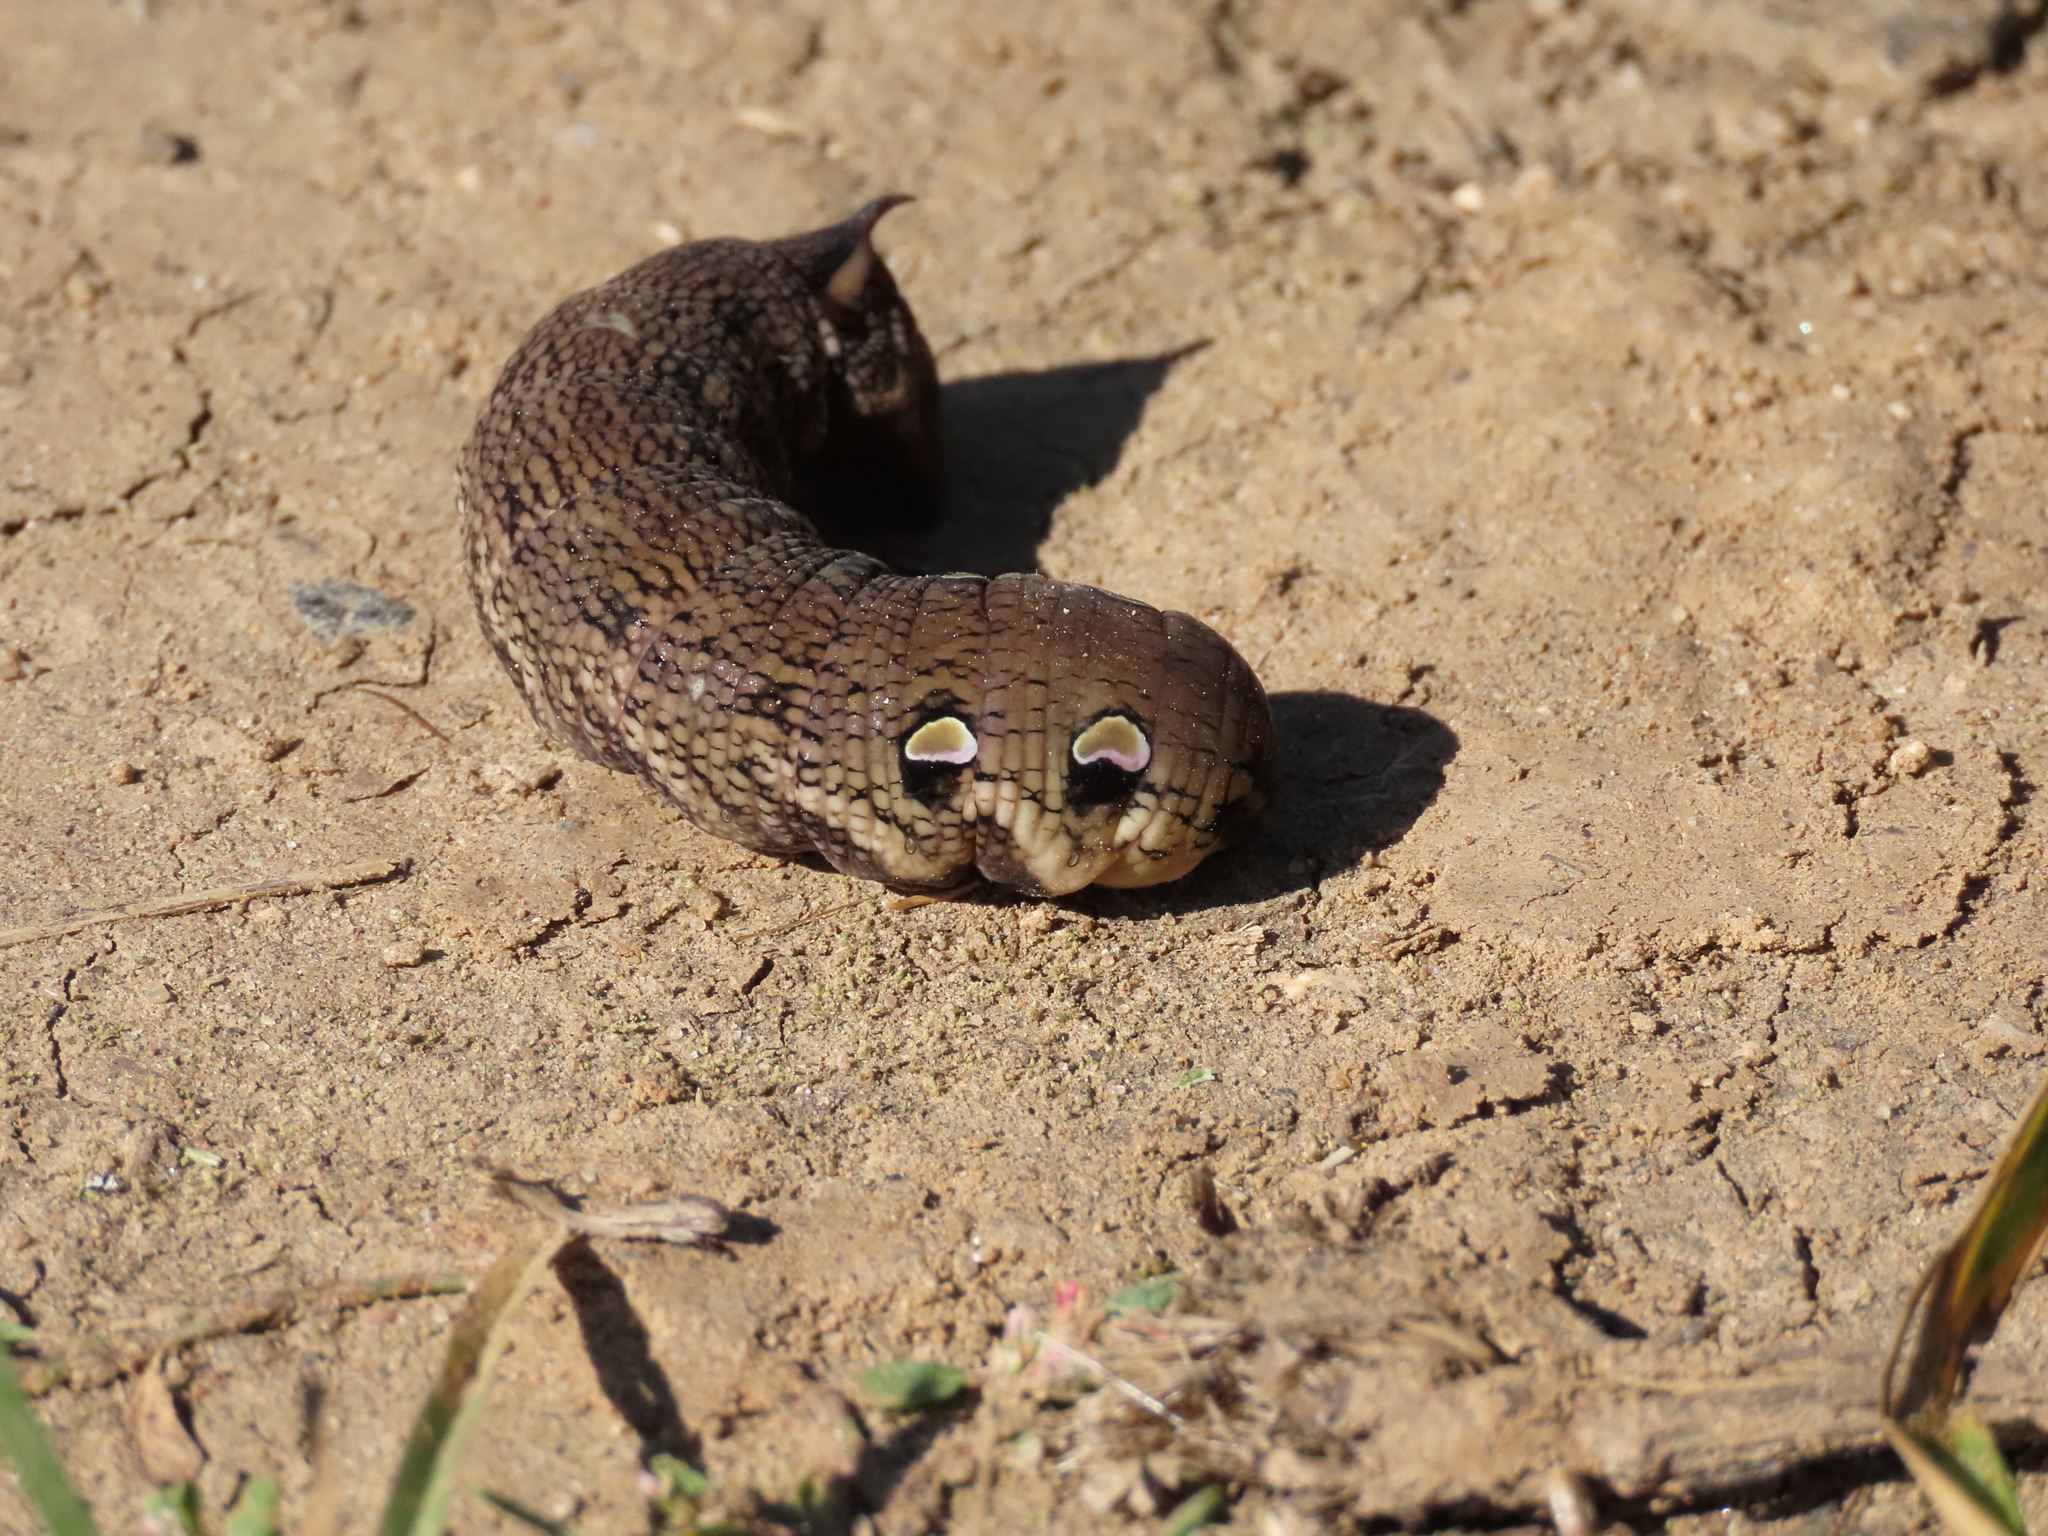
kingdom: Animalia
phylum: Arthropoda
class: Insecta
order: Lepidoptera
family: Sphingidae
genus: Deilephila
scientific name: Deilephila elpenor
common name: Elephant hawk-moth
